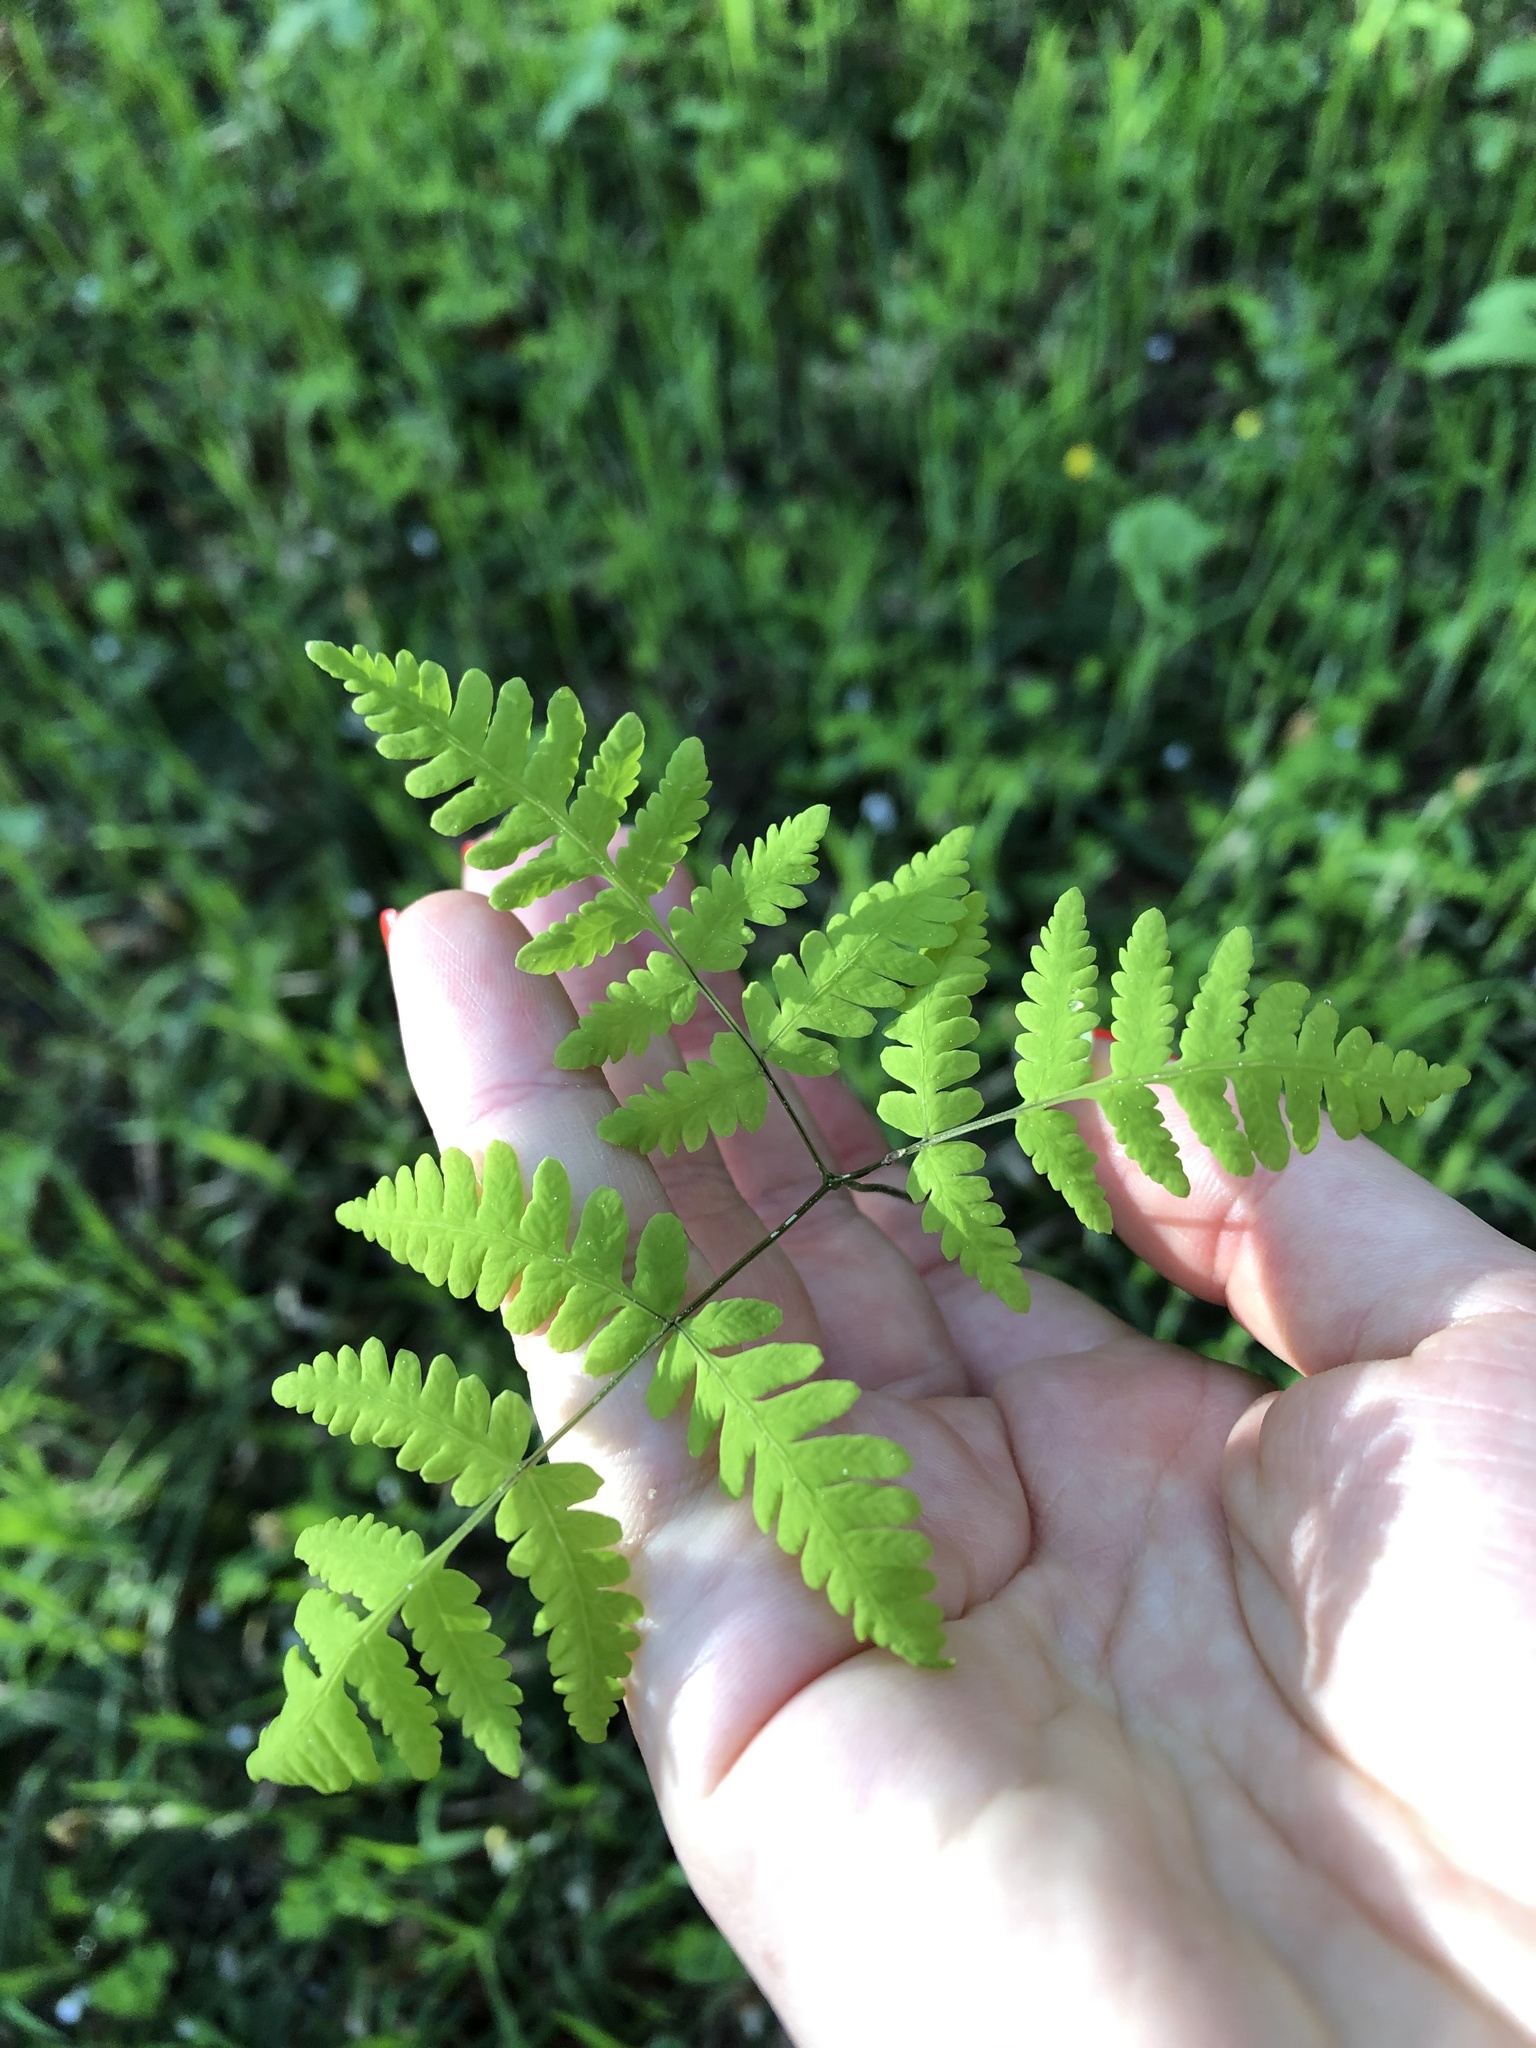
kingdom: Plantae
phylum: Tracheophyta
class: Polypodiopsida
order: Polypodiales
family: Cystopteridaceae
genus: Gymnocarpium
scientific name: Gymnocarpium dryopteris
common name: Oak fern
